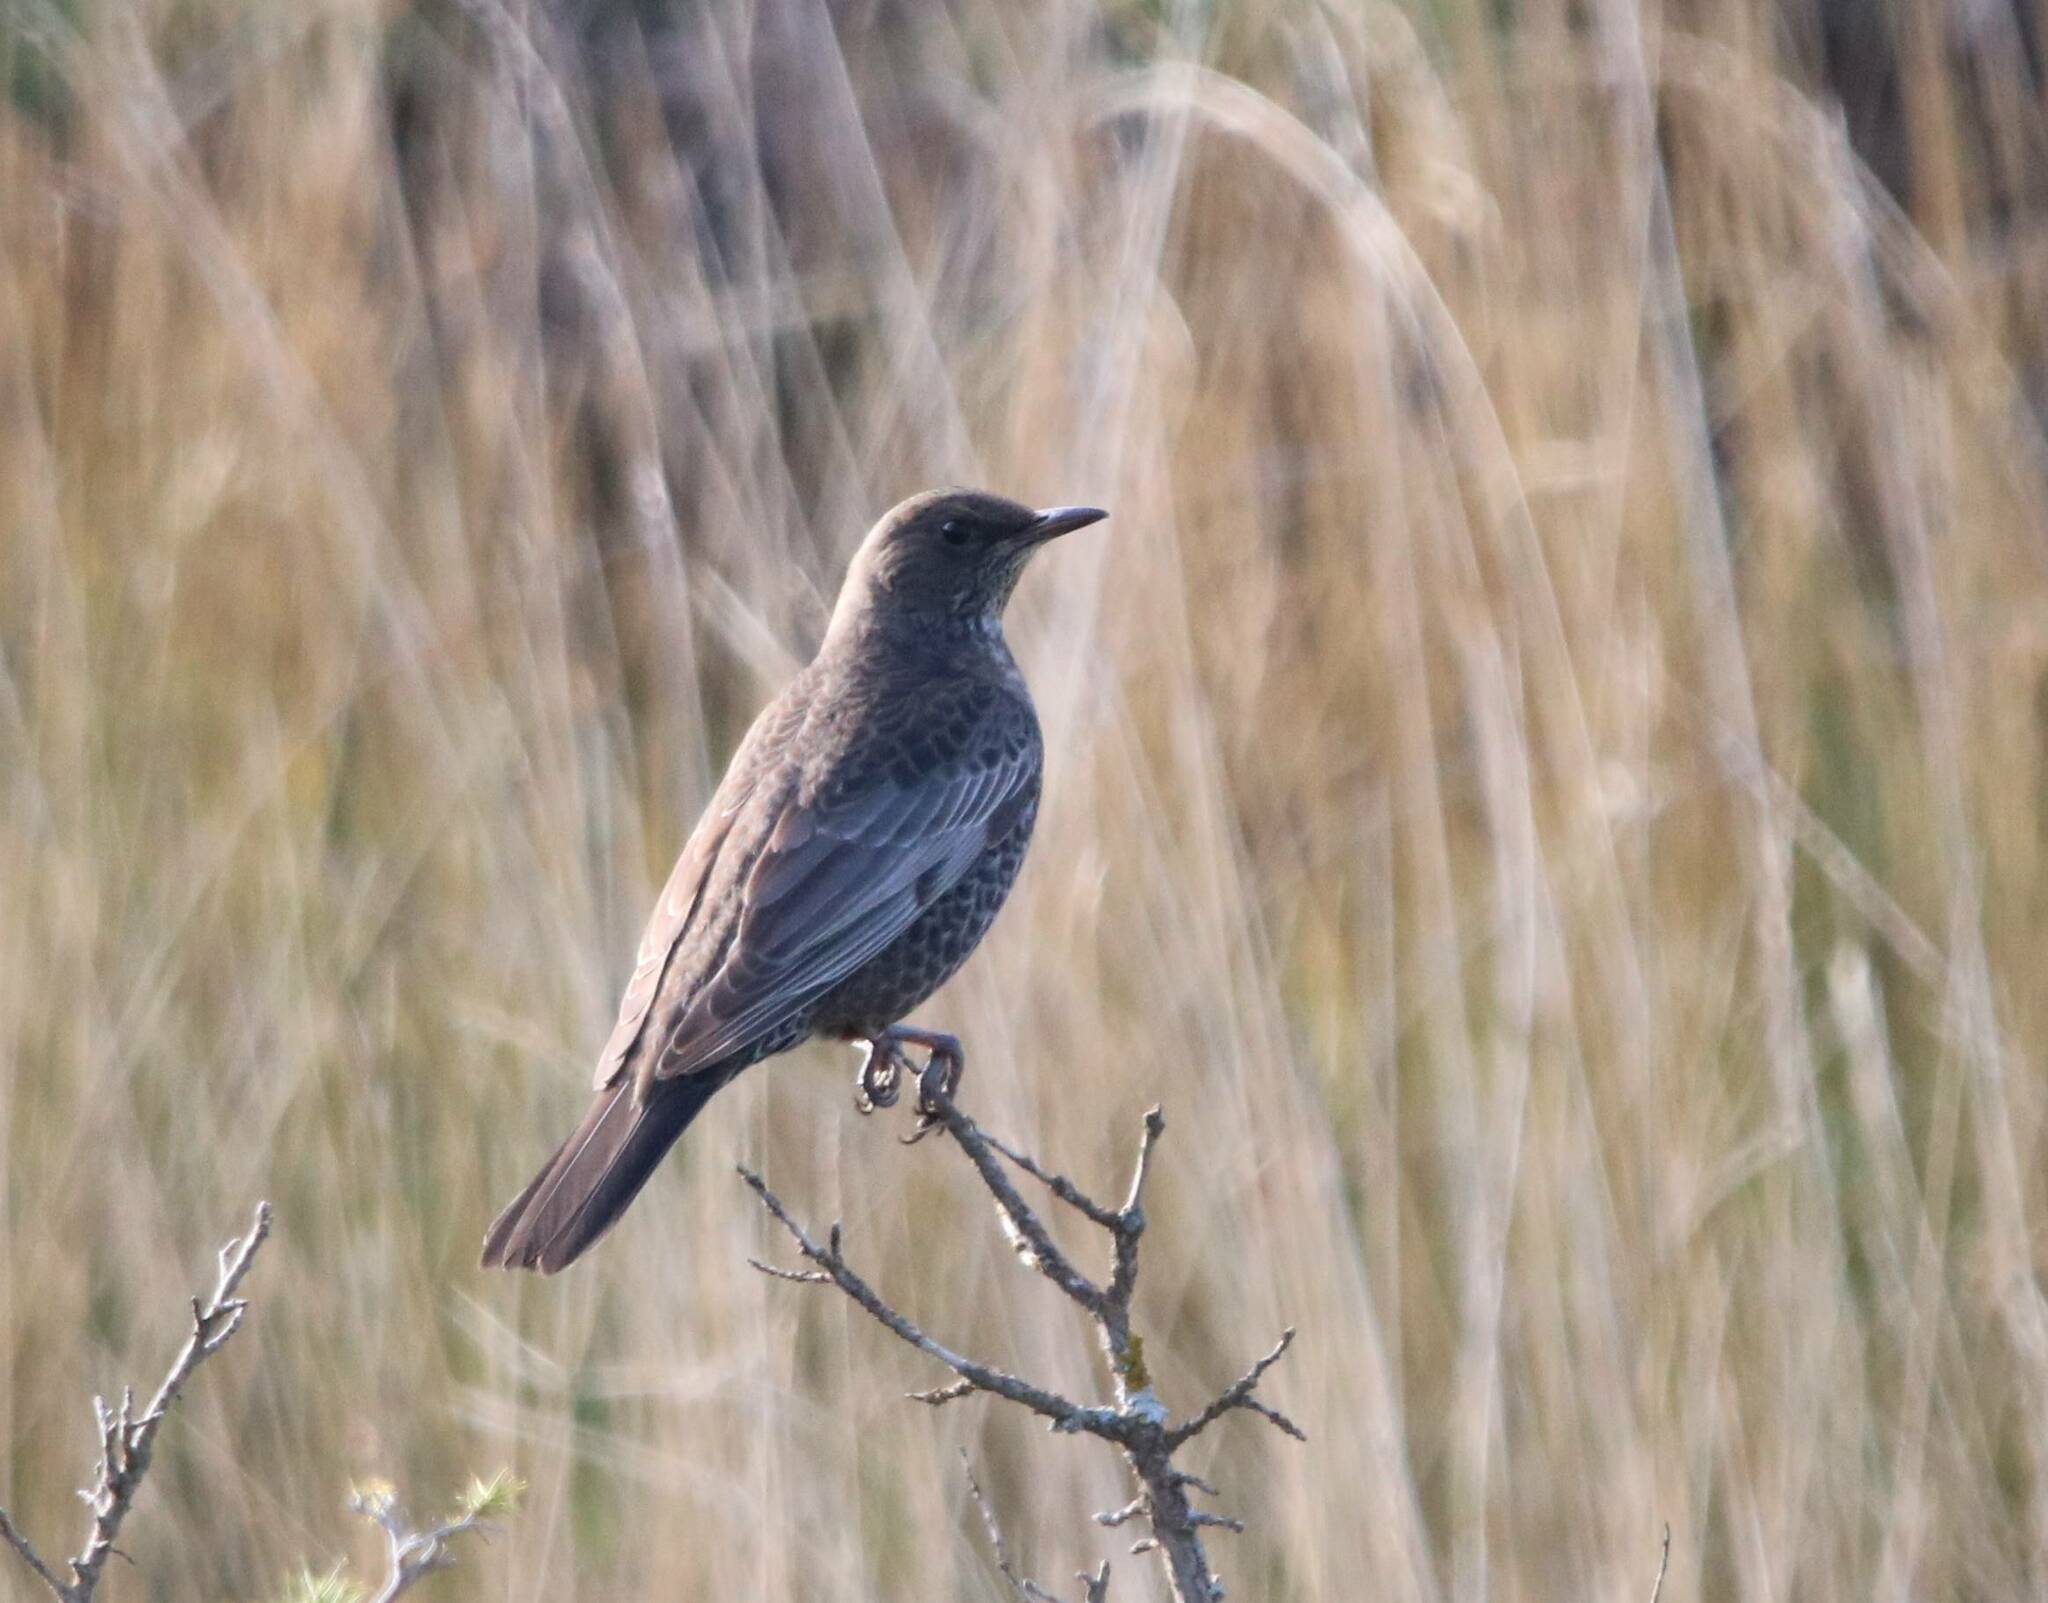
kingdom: Animalia
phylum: Chordata
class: Aves
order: Passeriformes
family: Turdidae
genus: Turdus
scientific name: Turdus torquatus
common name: Ring ouzel
